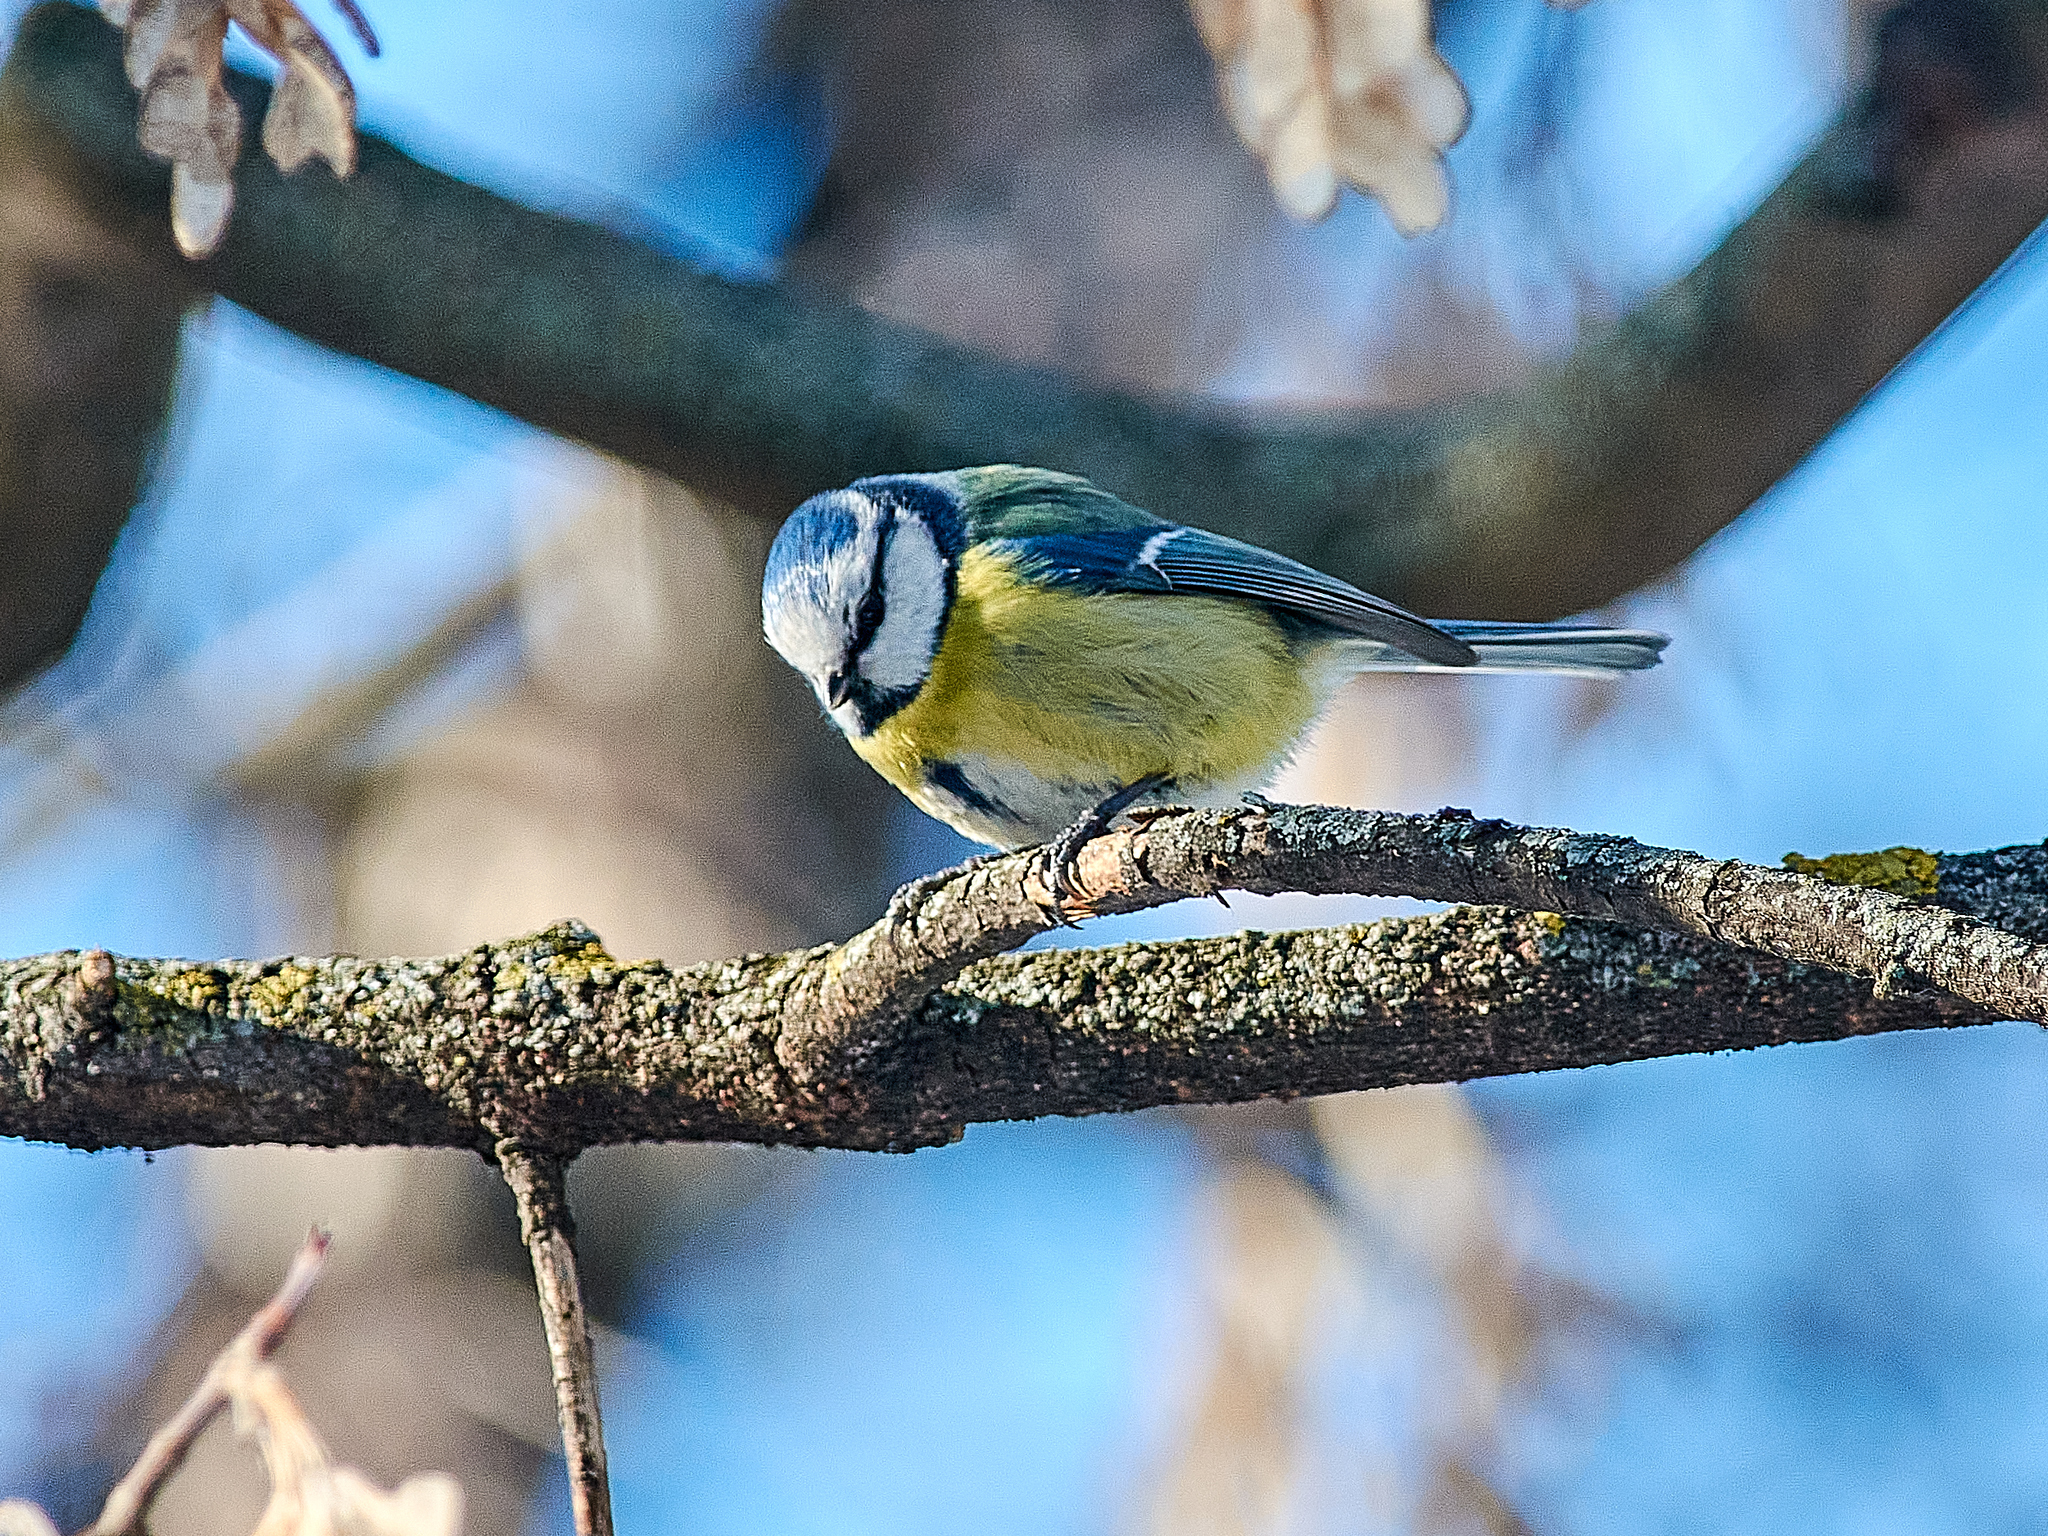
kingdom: Animalia
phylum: Chordata
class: Aves
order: Passeriformes
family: Paridae
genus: Cyanistes
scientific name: Cyanistes caeruleus
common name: Eurasian blue tit
